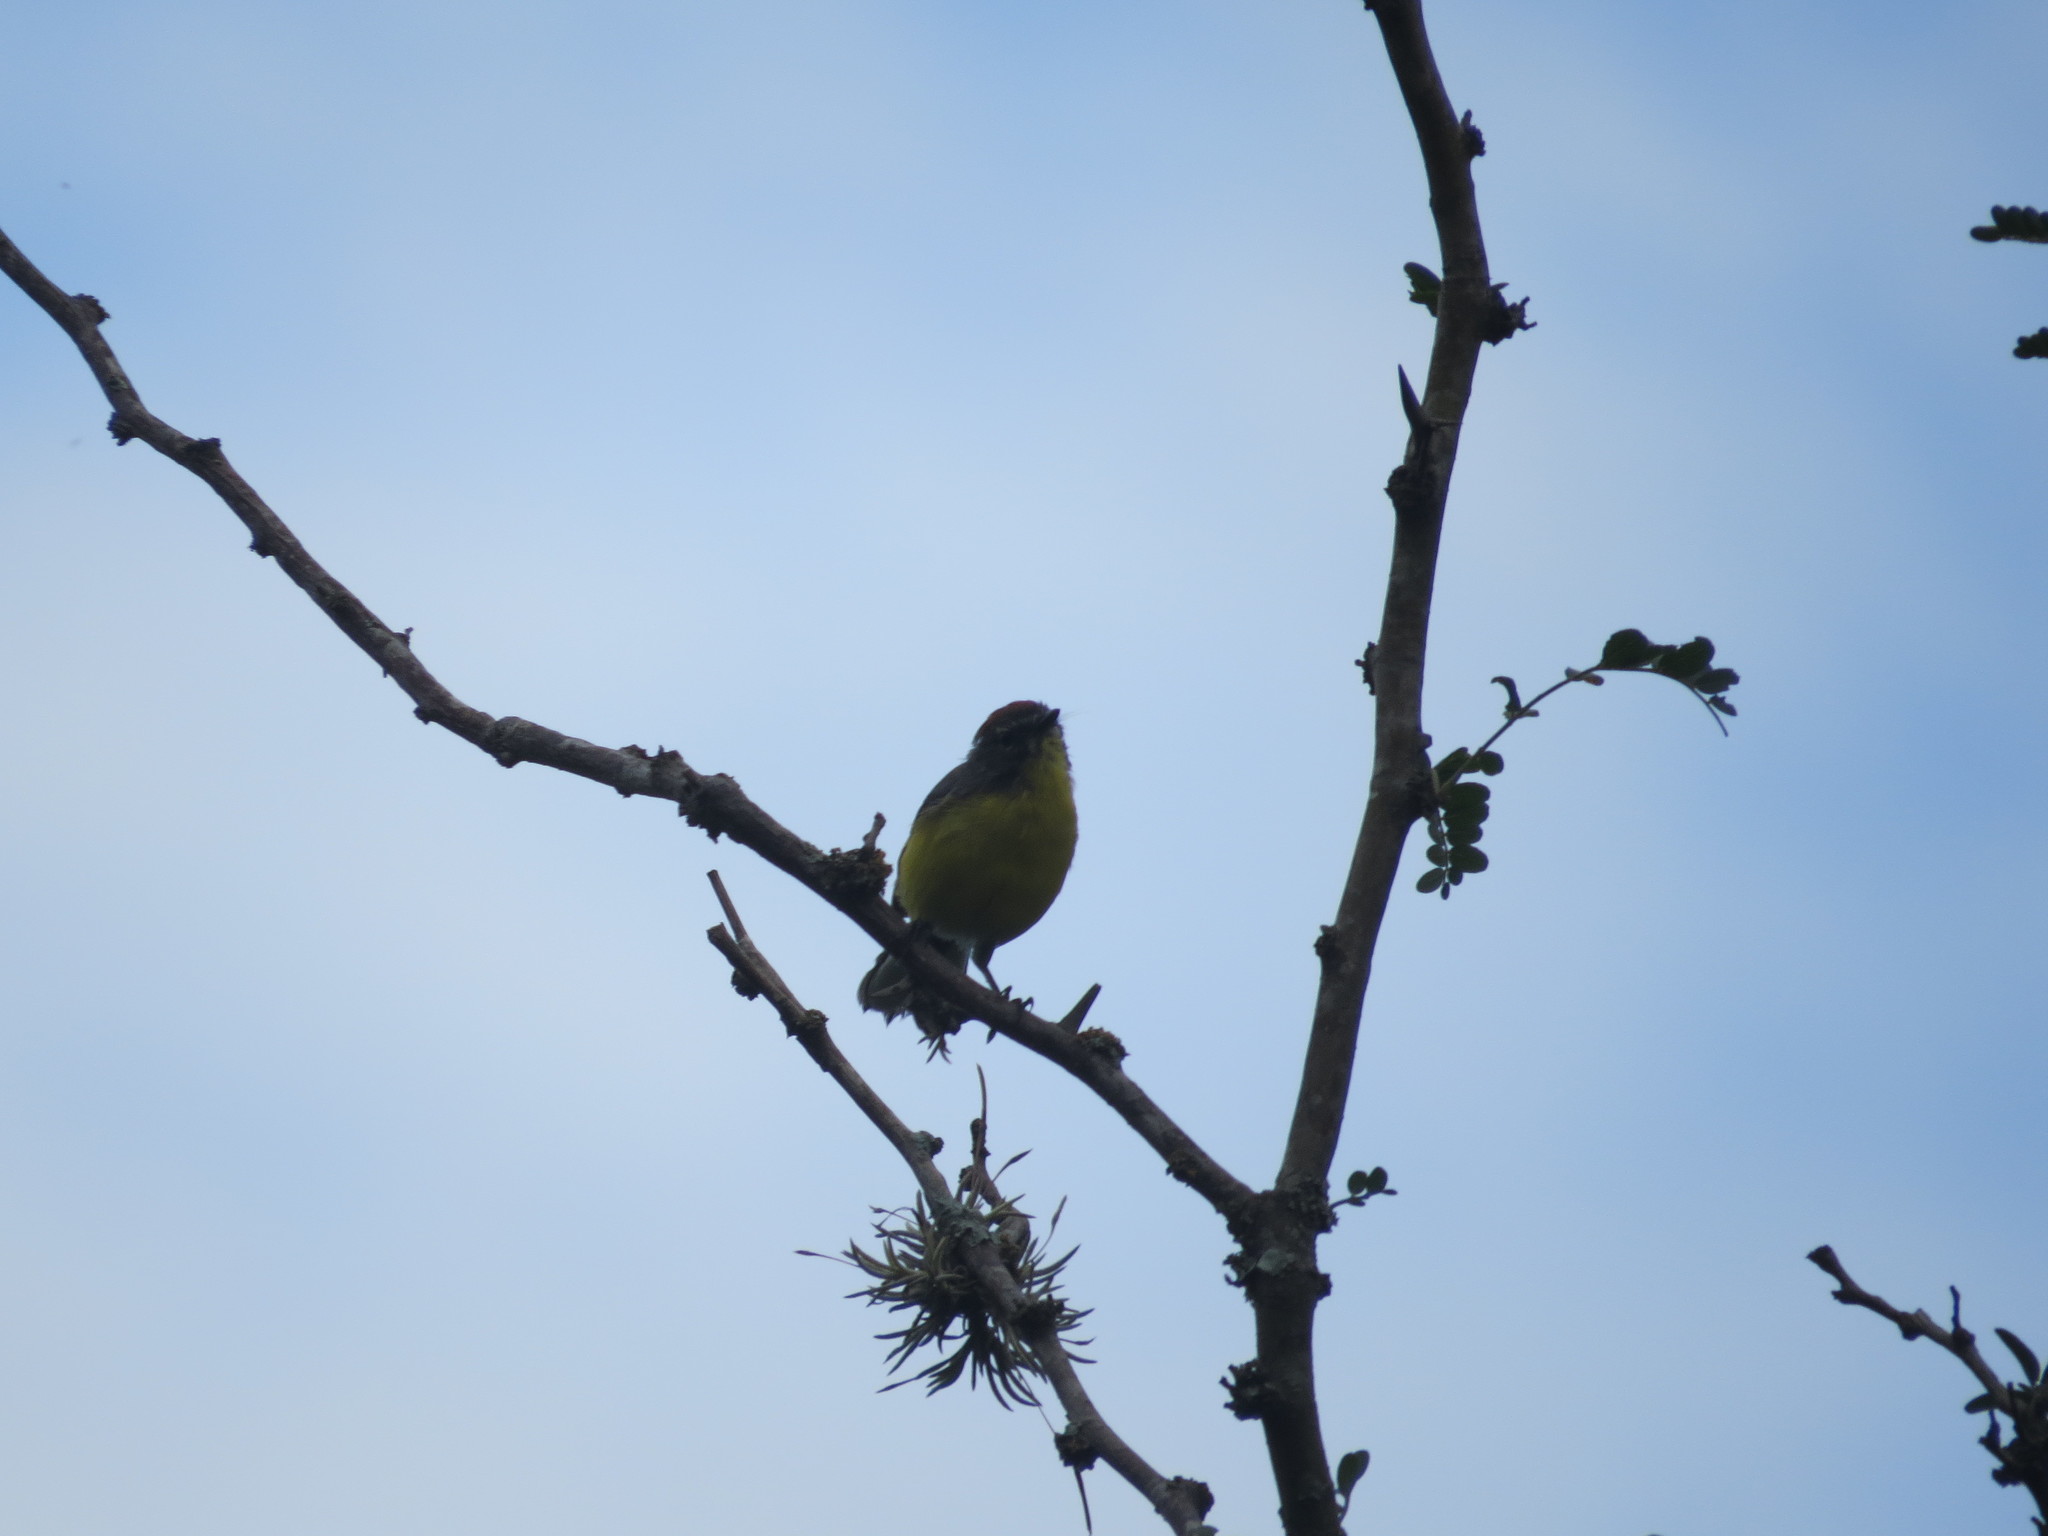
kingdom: Animalia
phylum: Chordata
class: Aves
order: Passeriformes
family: Parulidae
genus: Myioborus
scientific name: Myioborus brunniceps
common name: Brown-capped whitestart
